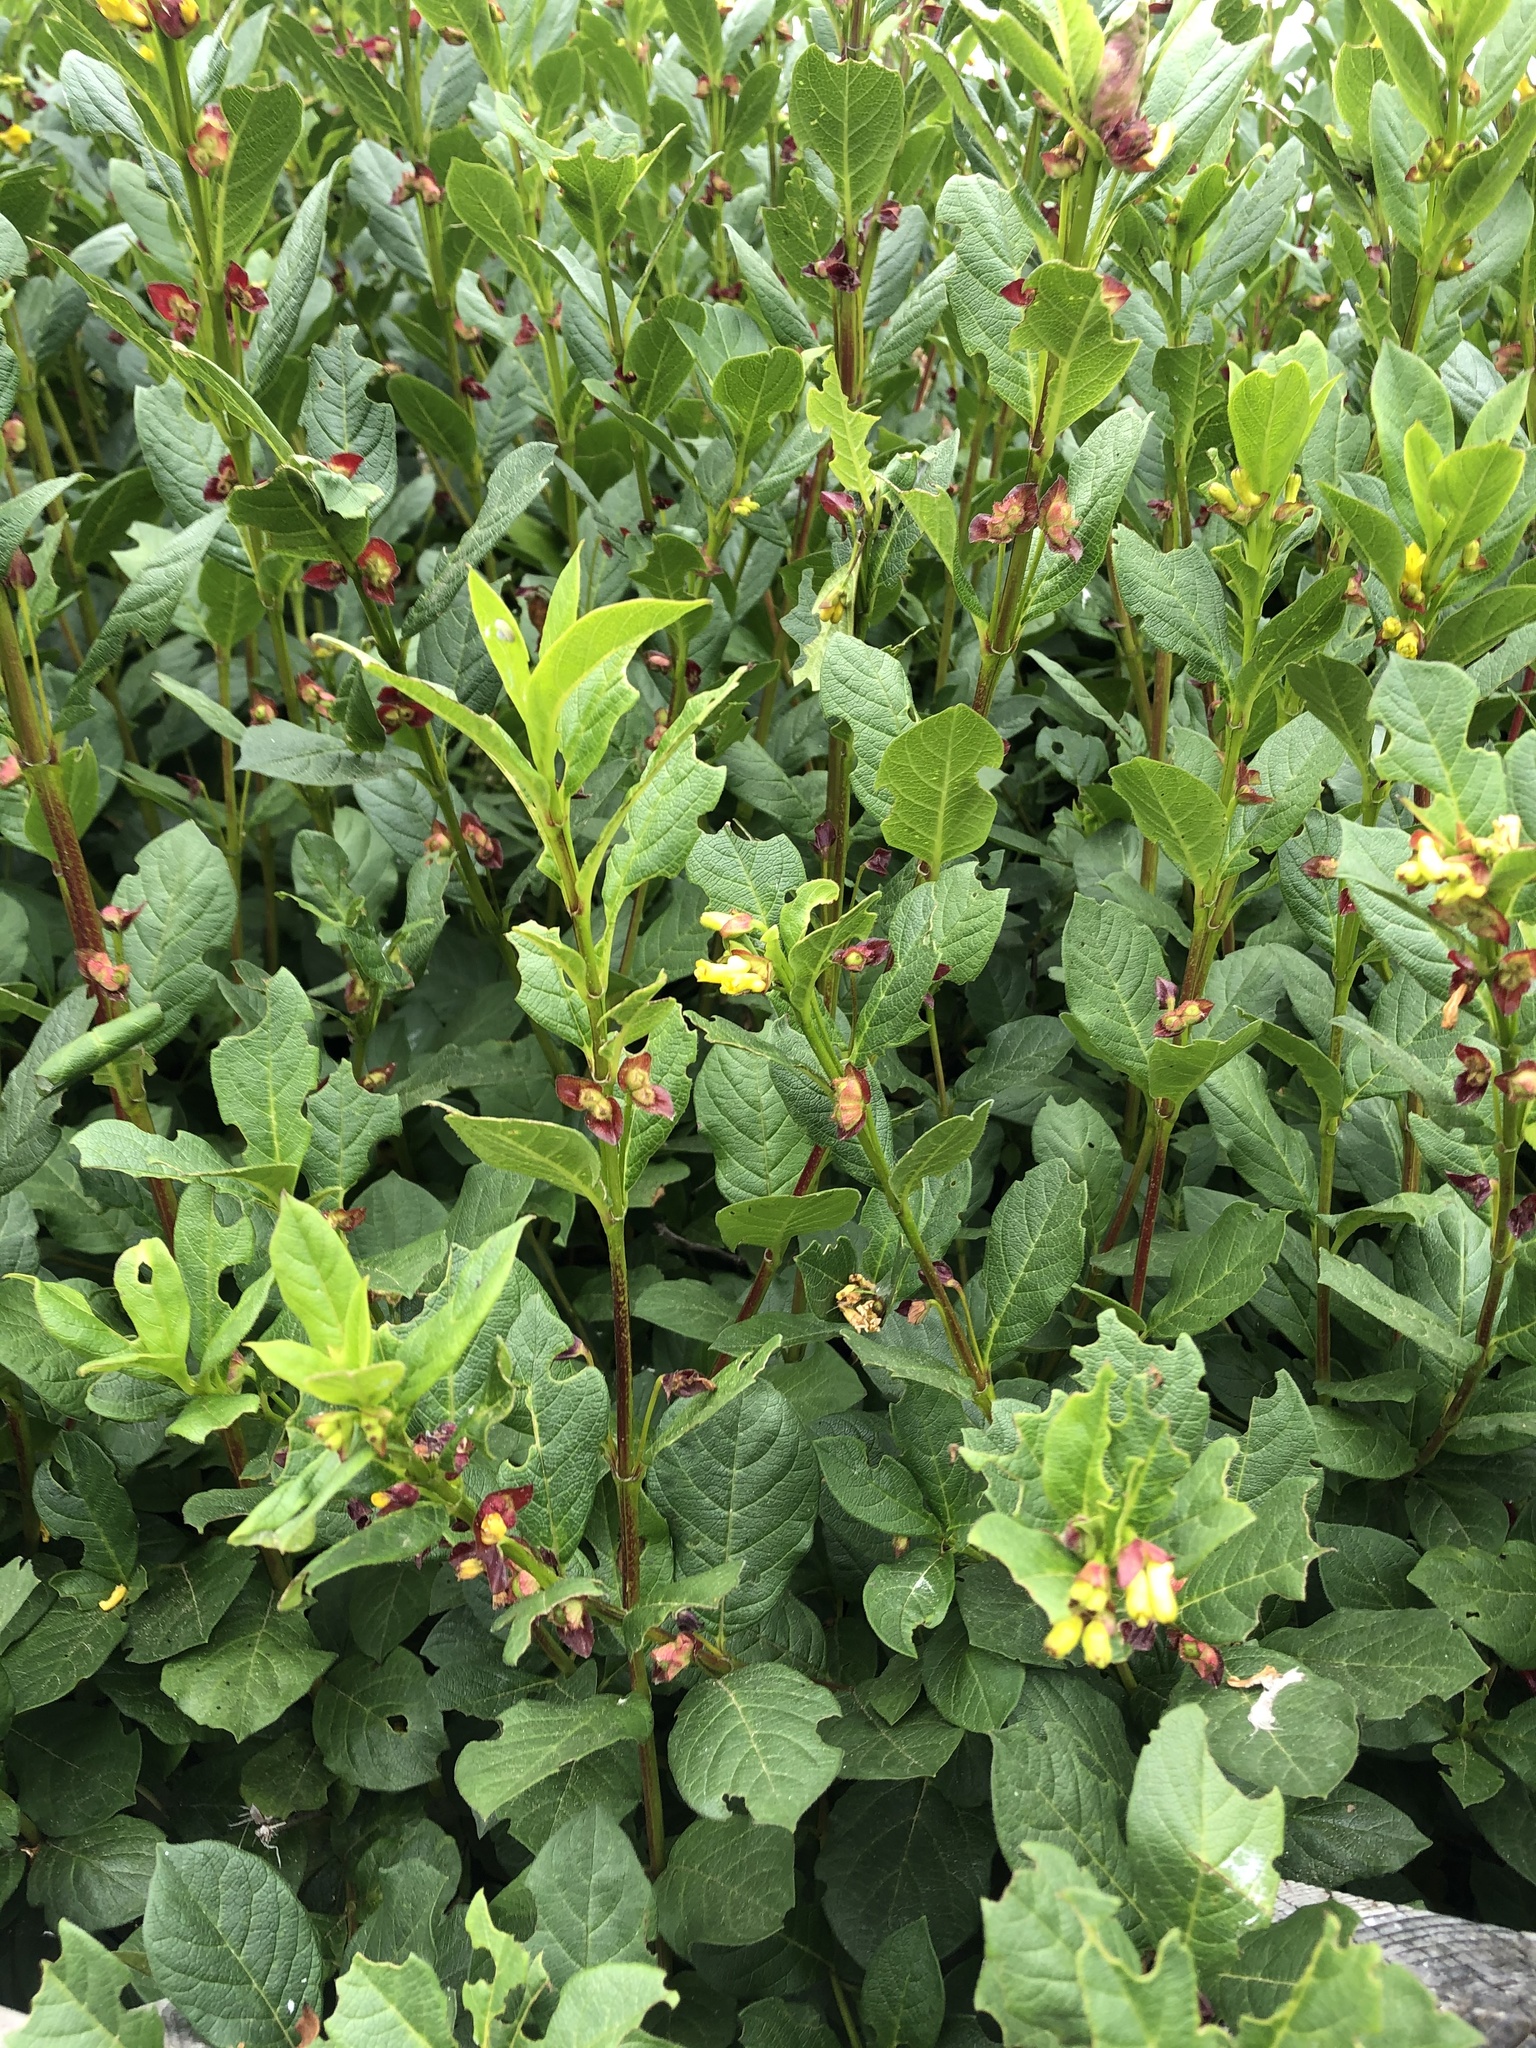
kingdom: Plantae
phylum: Tracheophyta
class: Magnoliopsida
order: Dipsacales
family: Caprifoliaceae
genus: Lonicera
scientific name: Lonicera involucrata
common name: Californian honeysuckle
